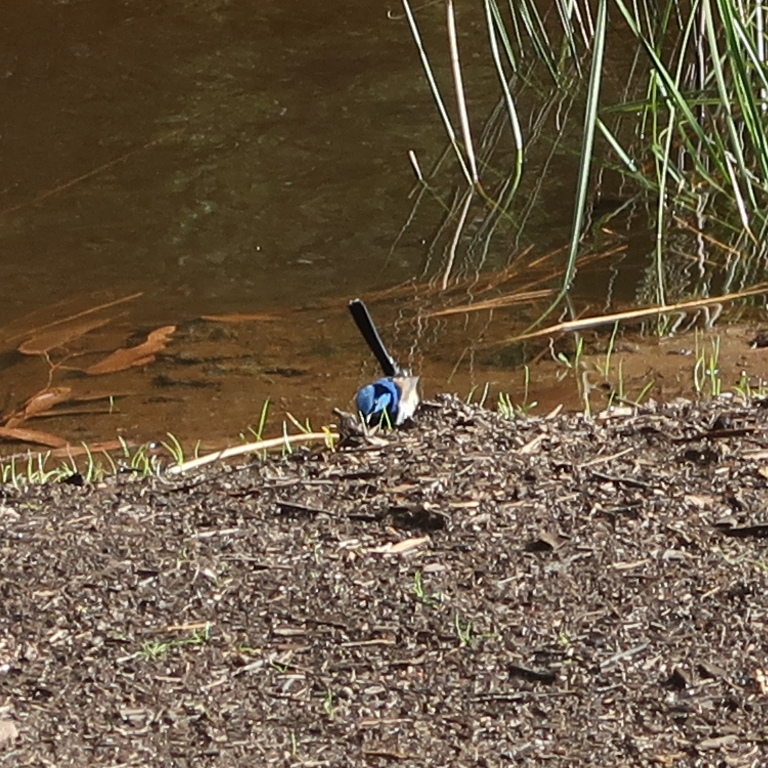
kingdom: Animalia
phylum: Chordata
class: Aves
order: Passeriformes
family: Maluridae
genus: Malurus
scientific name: Malurus cyaneus
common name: Superb fairywren
